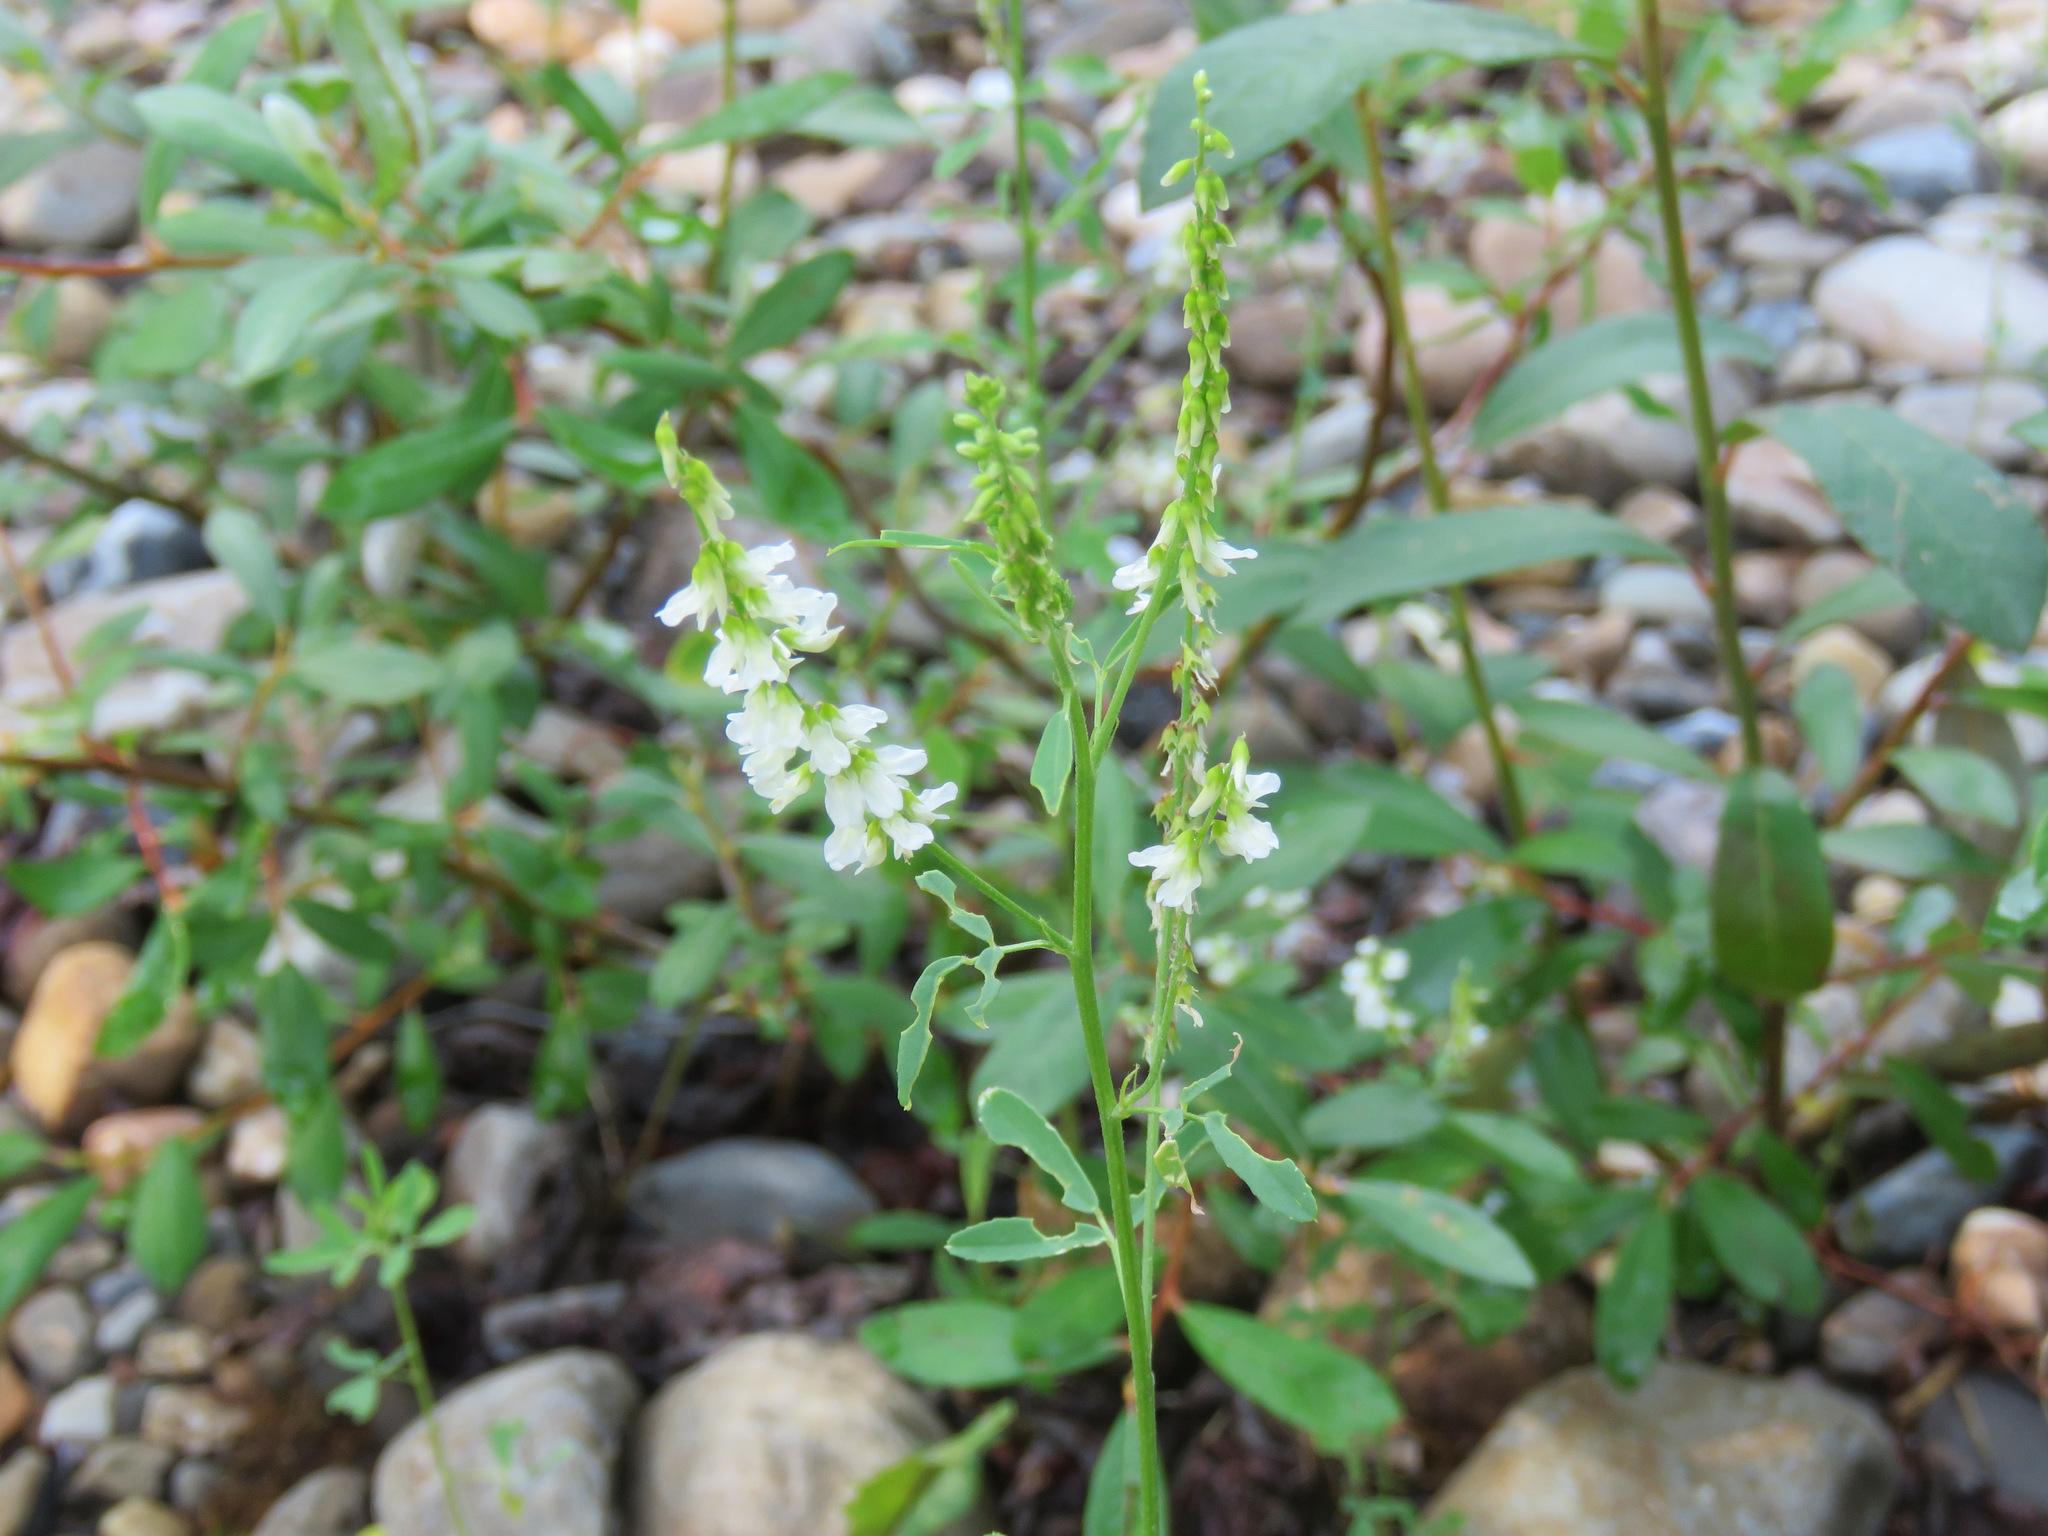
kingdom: Plantae
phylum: Tracheophyta
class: Magnoliopsida
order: Fabales
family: Fabaceae
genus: Melilotus
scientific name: Melilotus albus
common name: White melilot
